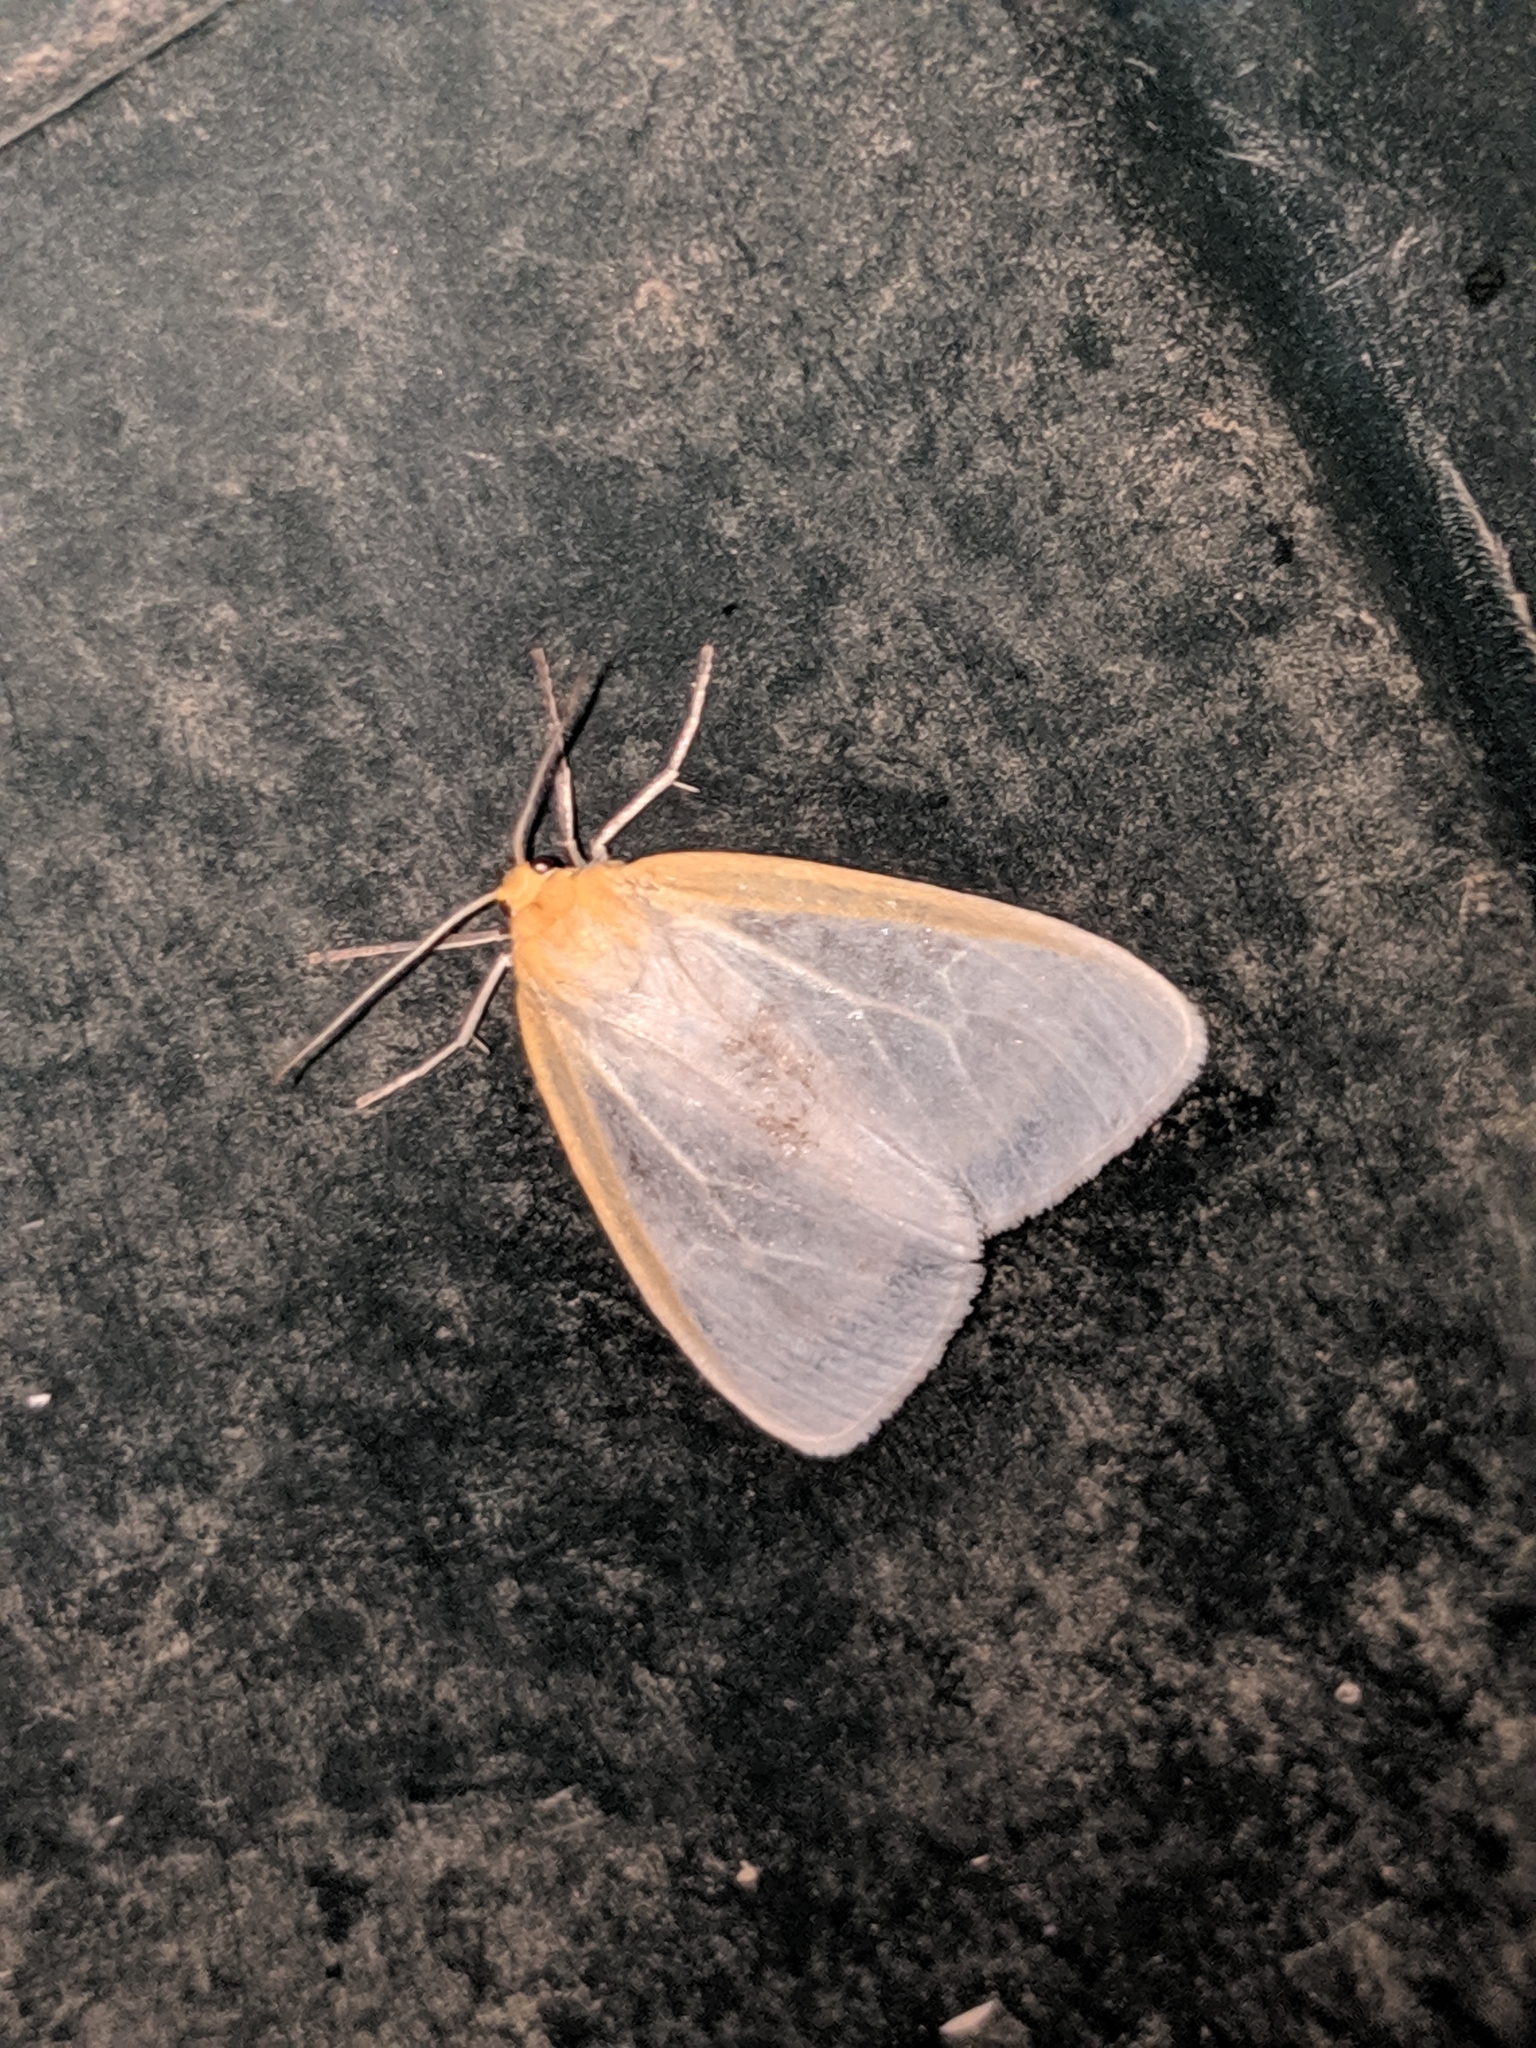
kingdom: Animalia
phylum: Arthropoda
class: Insecta
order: Lepidoptera
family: Erebidae
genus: Cycnia
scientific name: Cycnia tenera
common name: Delicate cycnia moth
